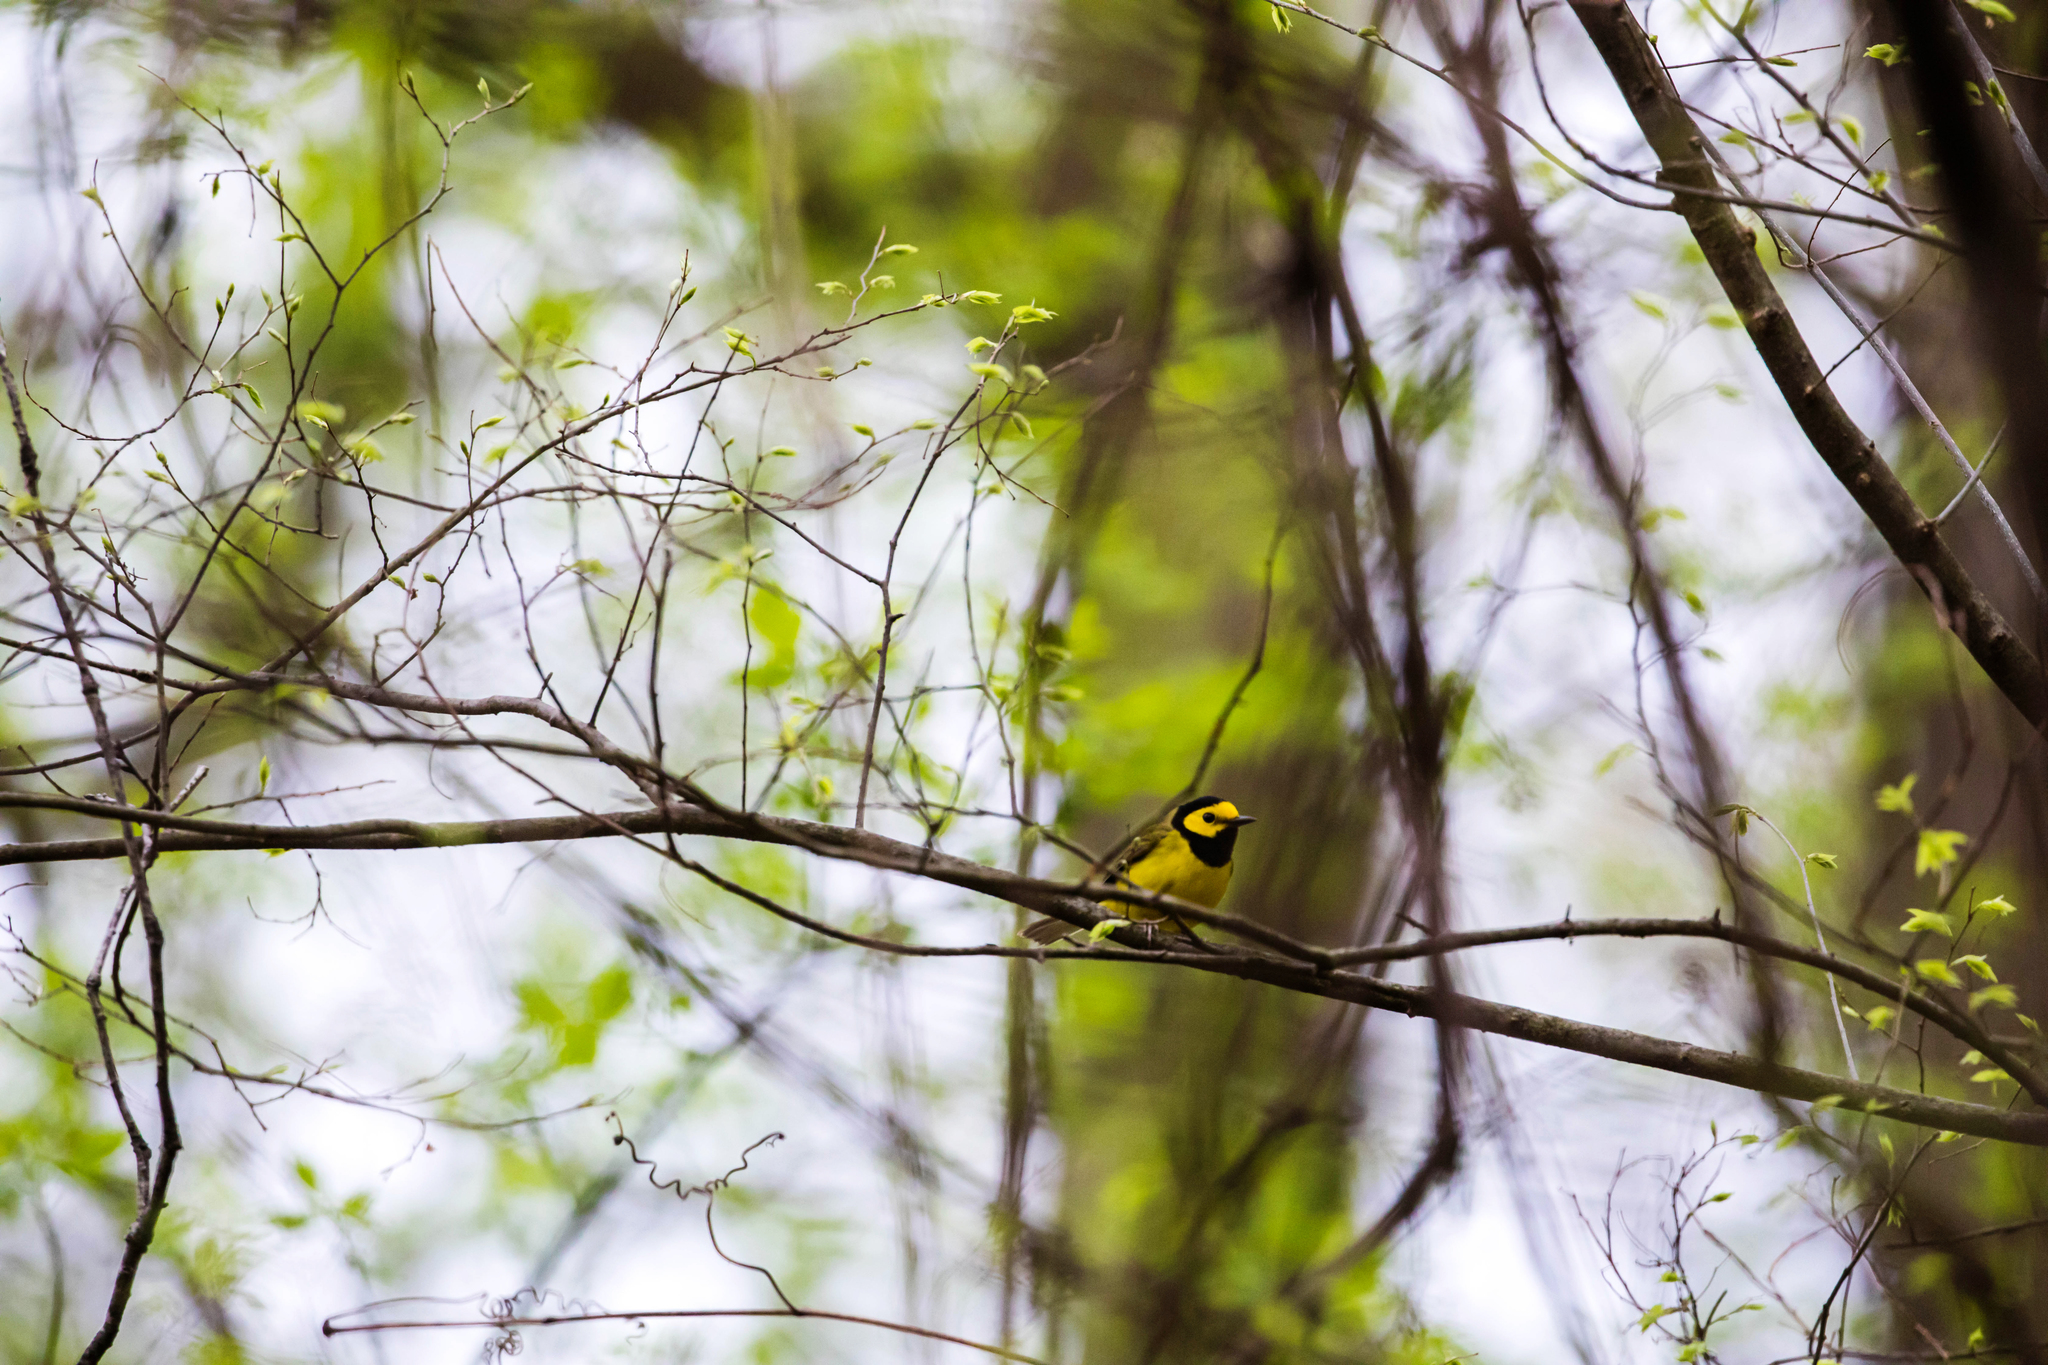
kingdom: Animalia
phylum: Chordata
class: Aves
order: Passeriformes
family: Parulidae
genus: Setophaga
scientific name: Setophaga citrina
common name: Hooded warbler
